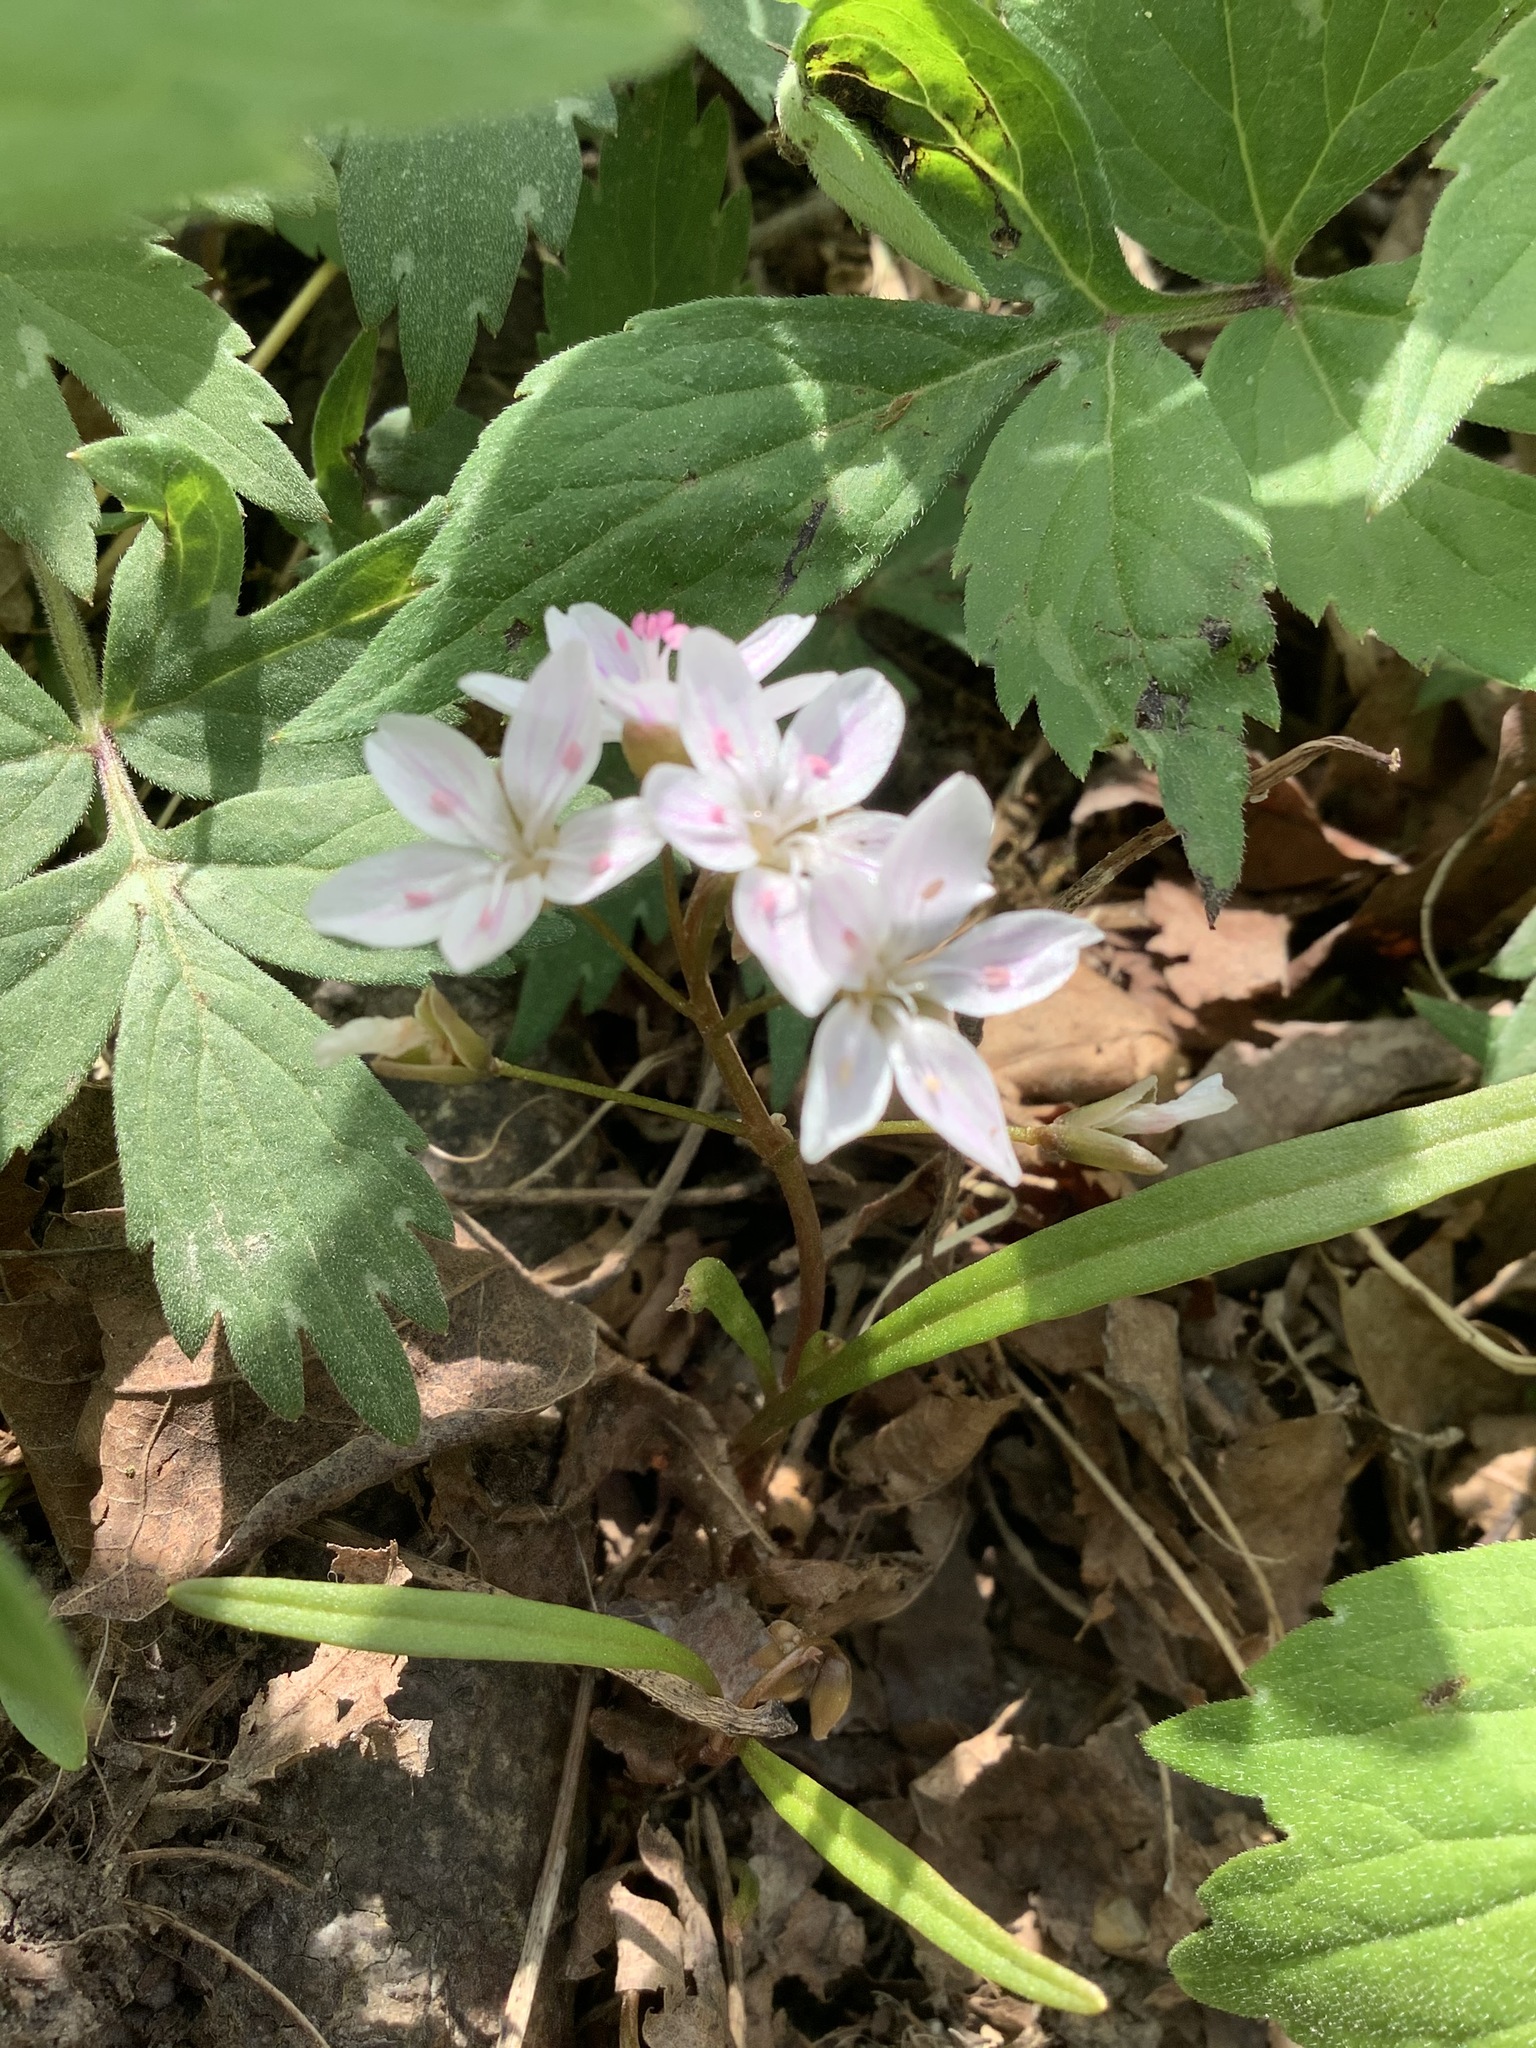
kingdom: Plantae
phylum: Tracheophyta
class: Magnoliopsida
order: Caryophyllales
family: Montiaceae
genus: Claytonia
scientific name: Claytonia virginica
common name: Virginia springbeauty
